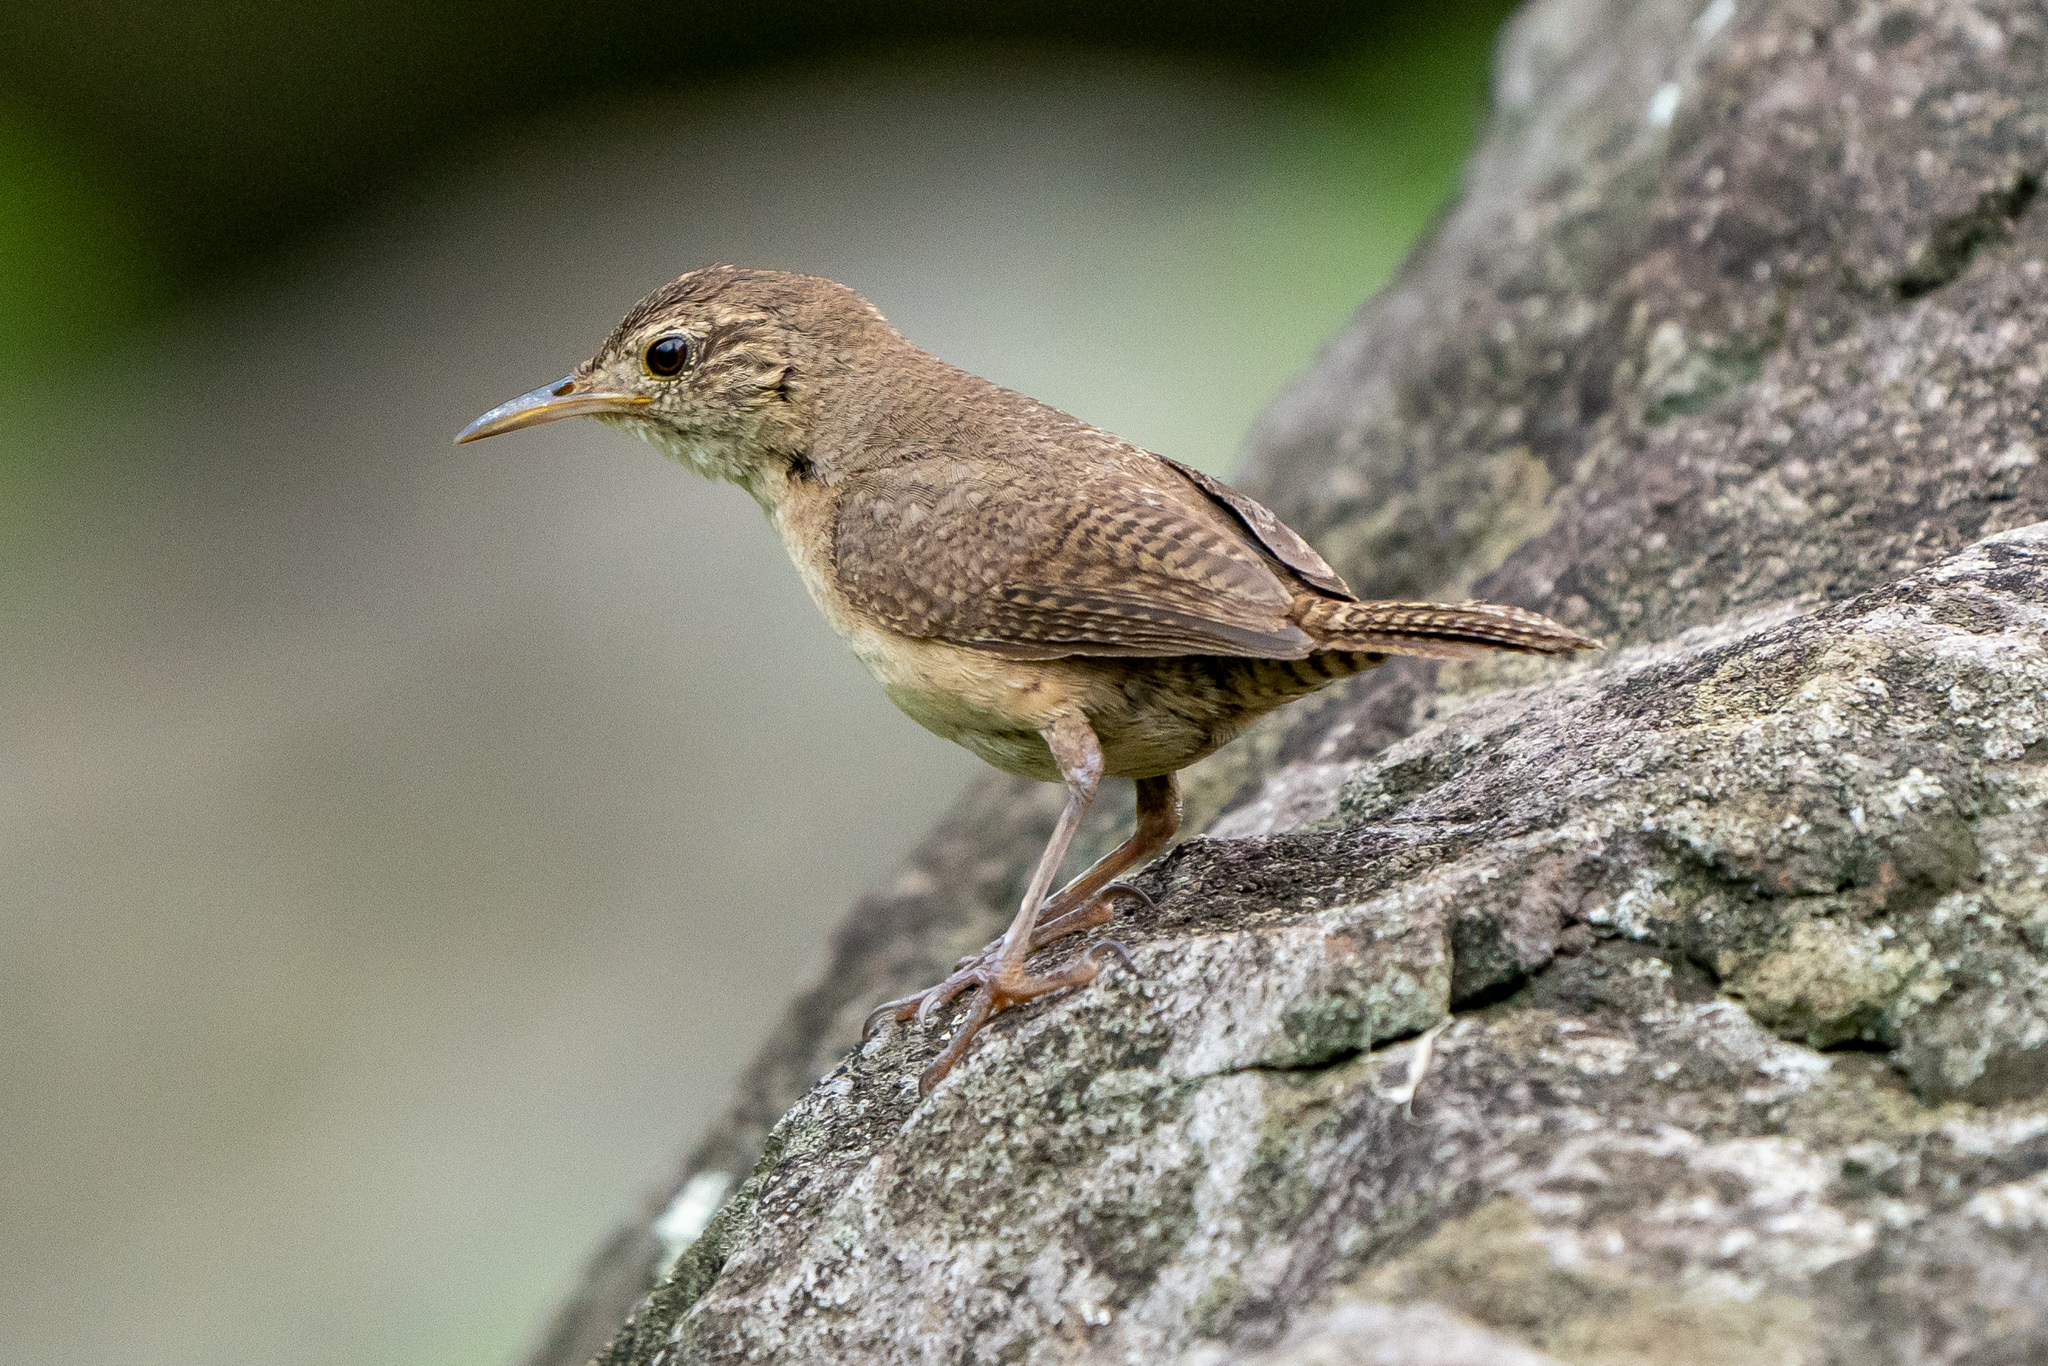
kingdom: Animalia
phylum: Chordata
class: Aves
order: Passeriformes
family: Troglodytidae
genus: Troglodytes
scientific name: Troglodytes aedon
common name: House wren
